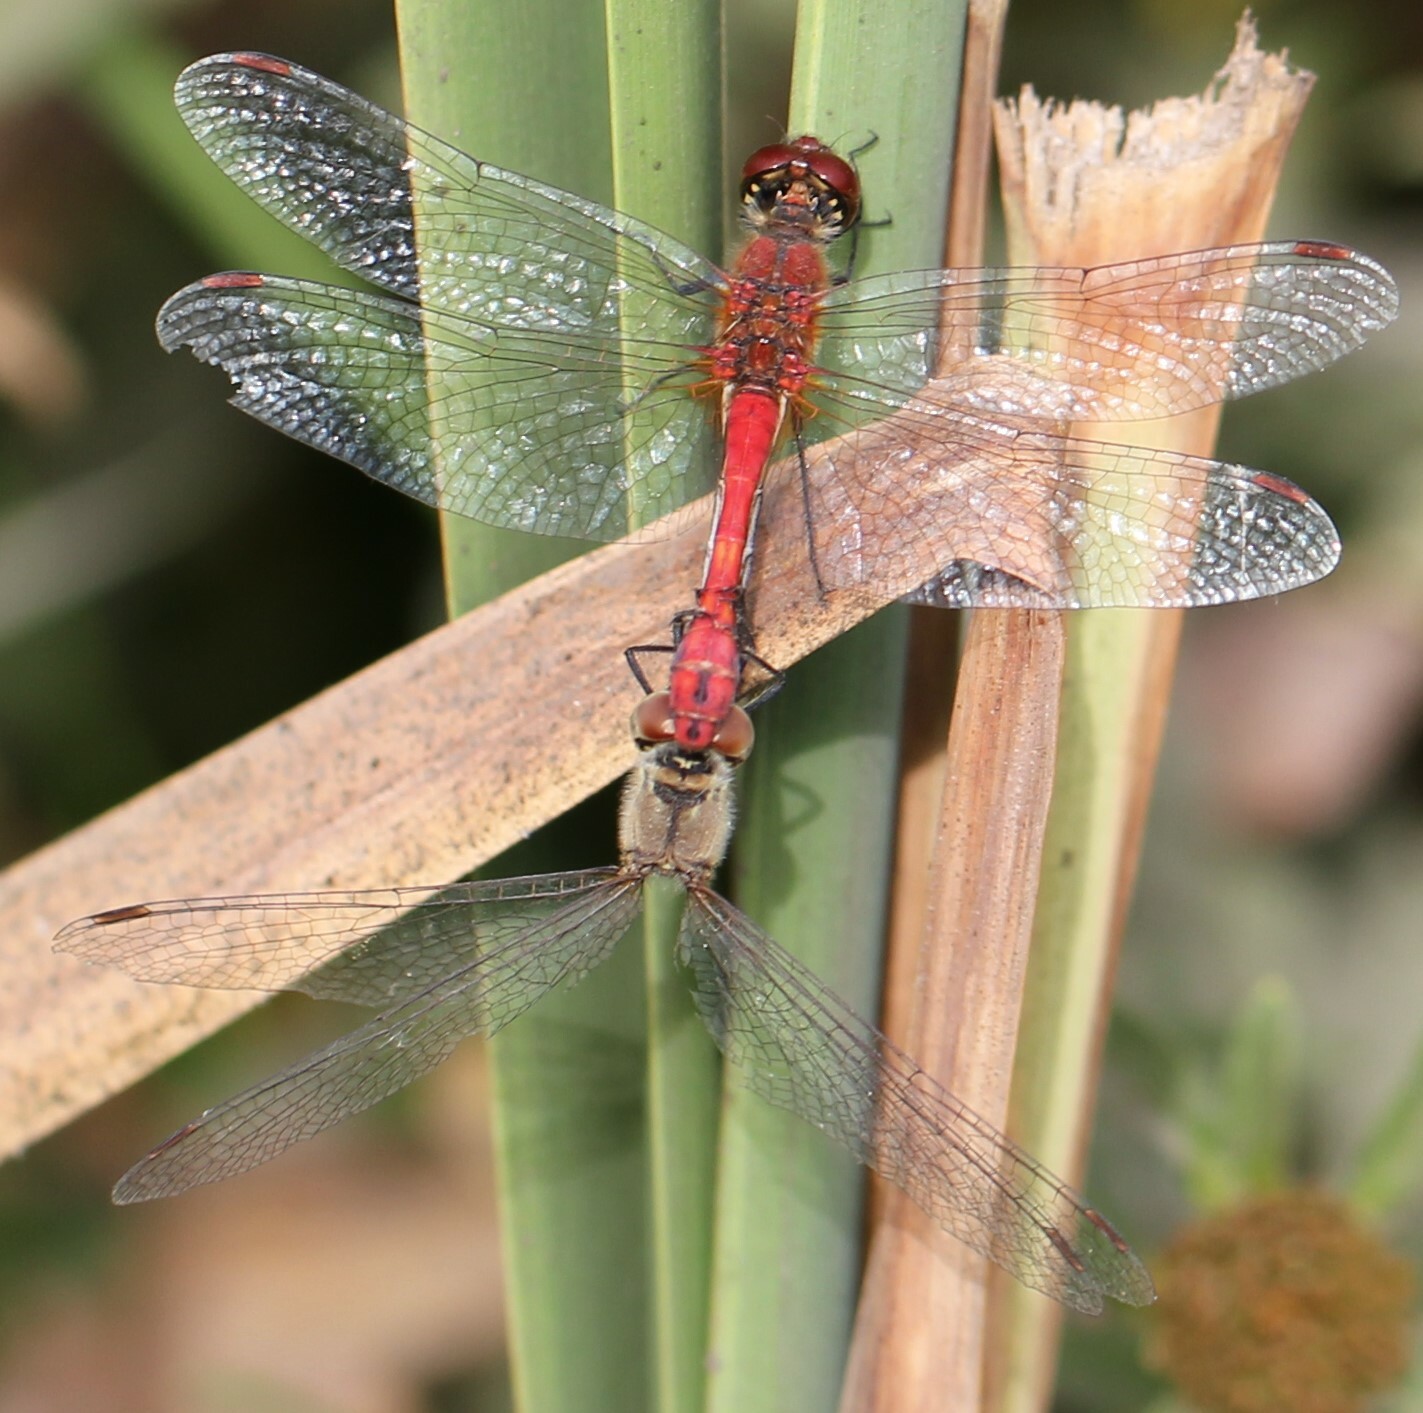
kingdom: Animalia
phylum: Arthropoda
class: Insecta
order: Odonata
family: Libellulidae
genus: Sympetrum
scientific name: Sympetrum sanguineum
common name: Ruddy darter
